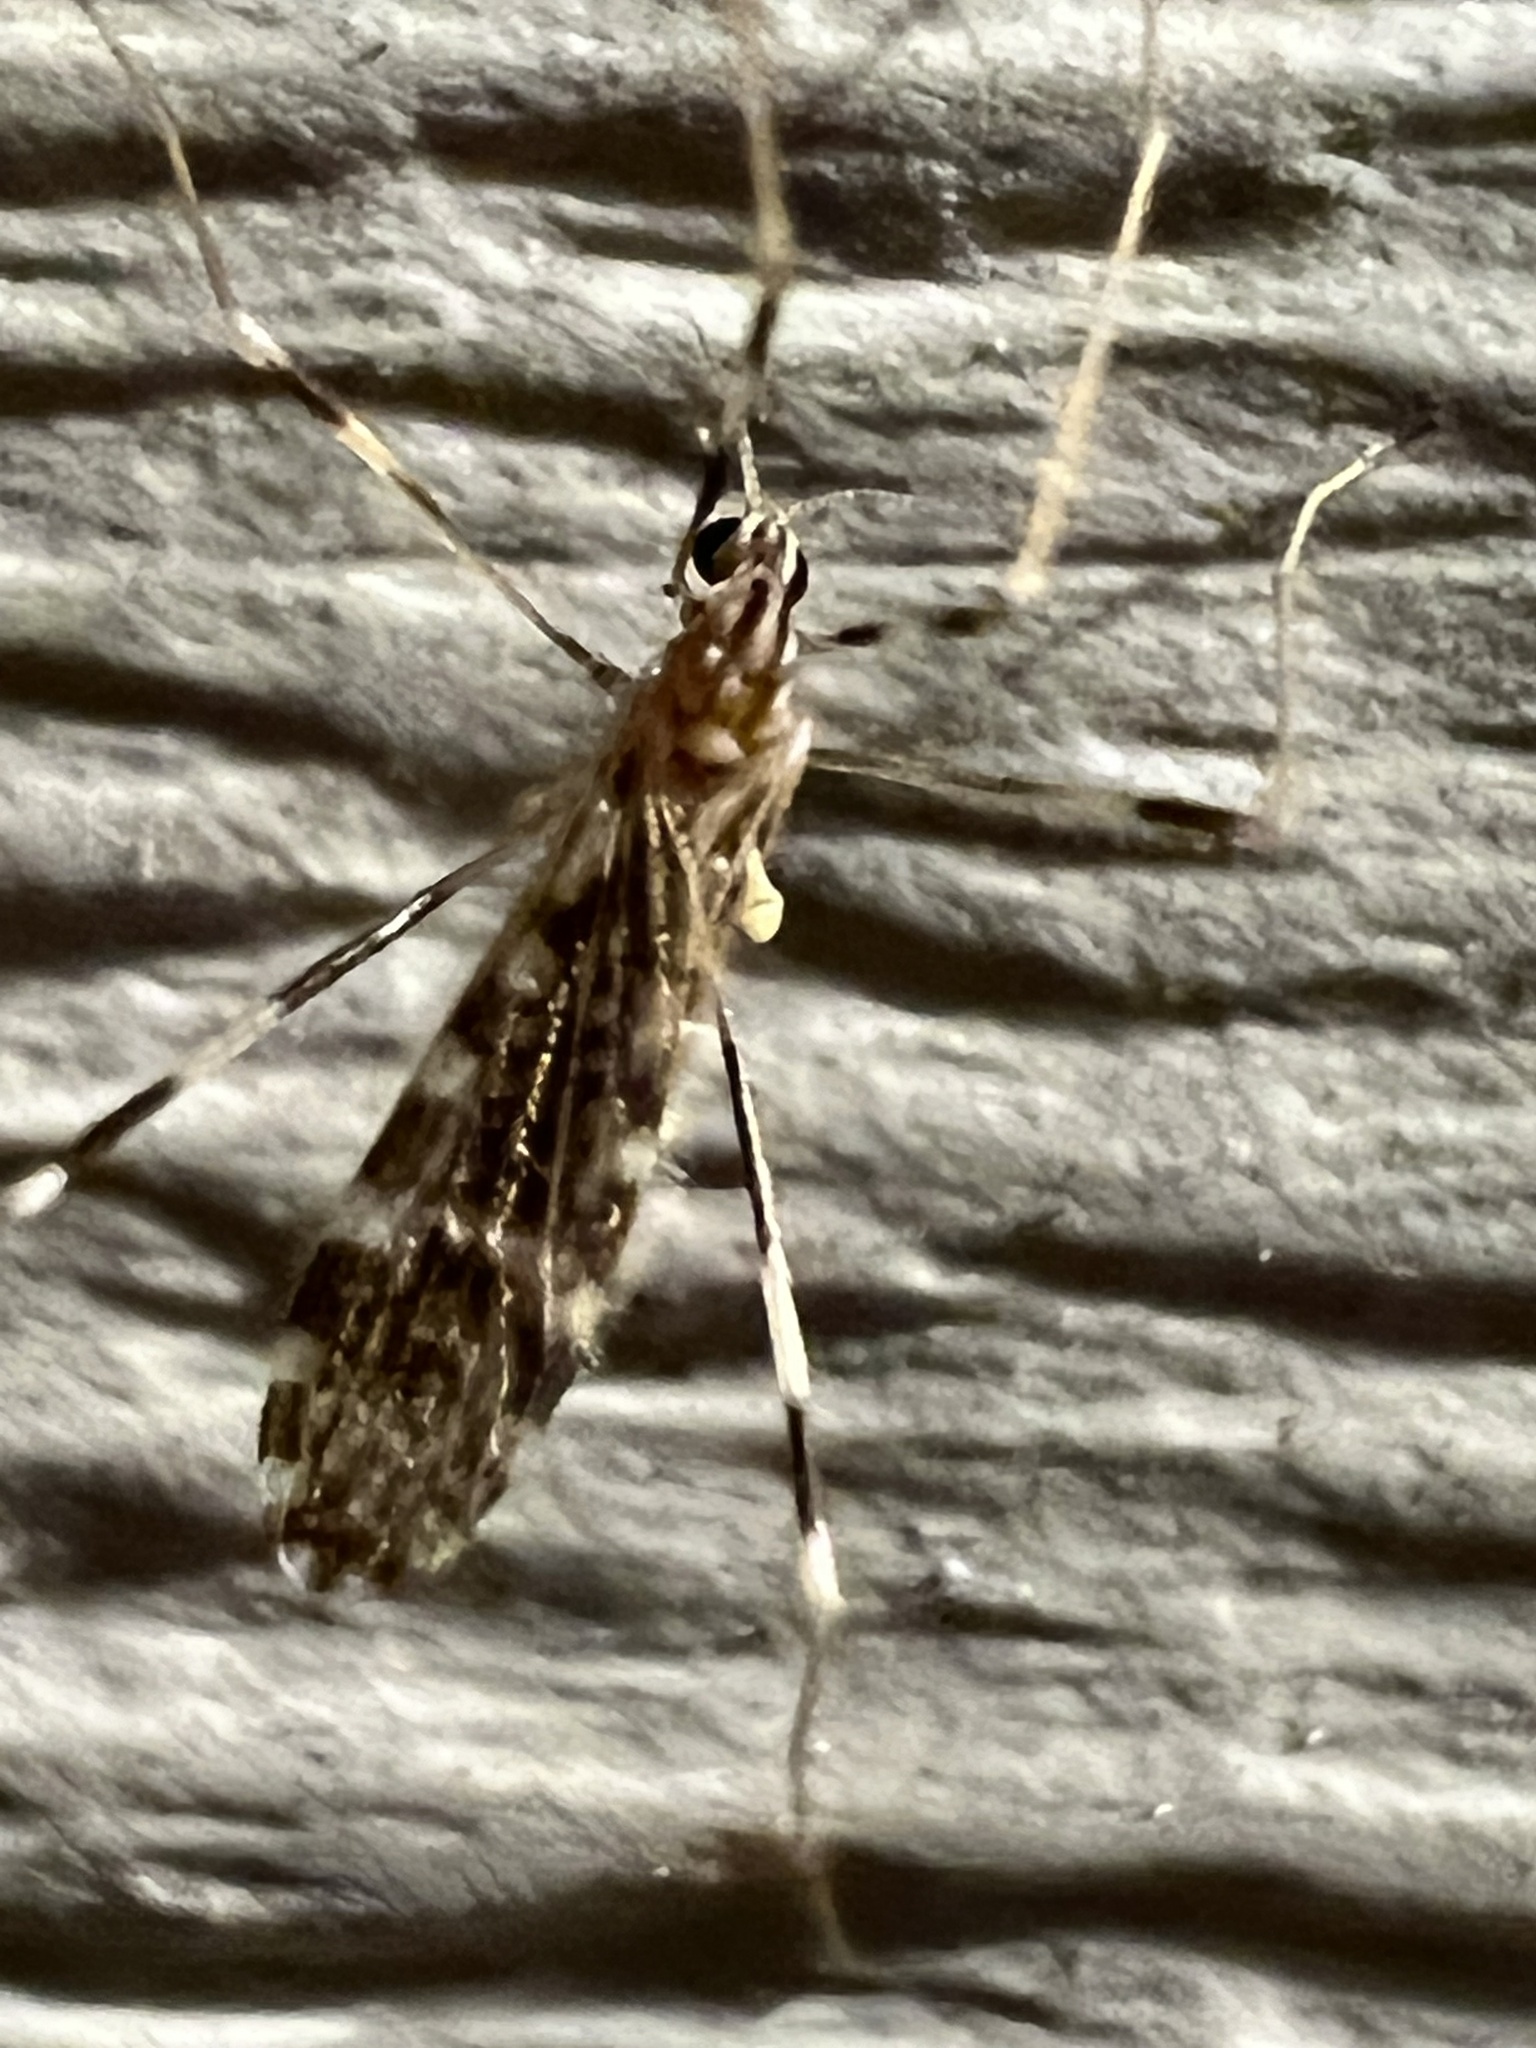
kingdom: Animalia
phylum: Arthropoda
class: Insecta
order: Diptera
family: Limoniidae
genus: Erioptera
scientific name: Erioptera caliptera
